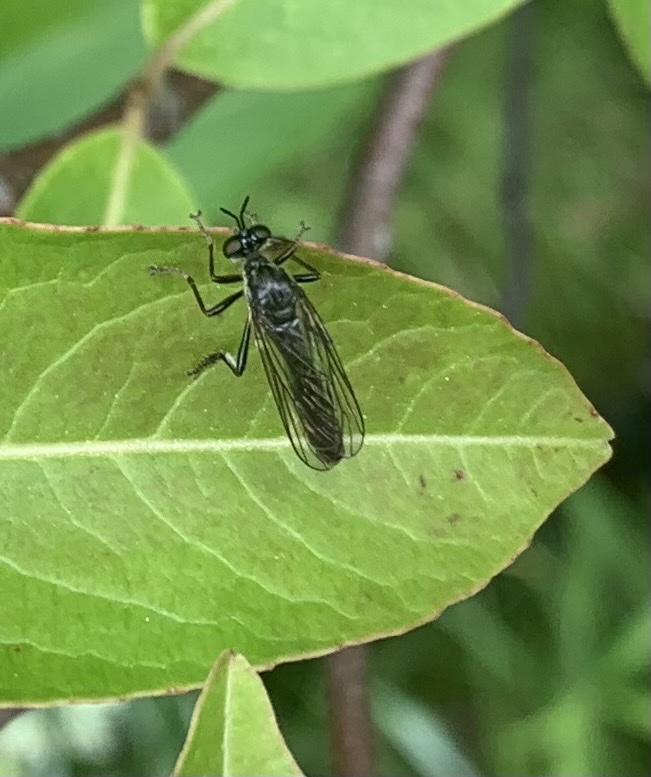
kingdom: Animalia
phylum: Arthropoda
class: Insecta
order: Diptera
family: Asilidae
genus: Dioctria
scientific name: Dioctria hyalipennis
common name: Stripe-legged robberfly
